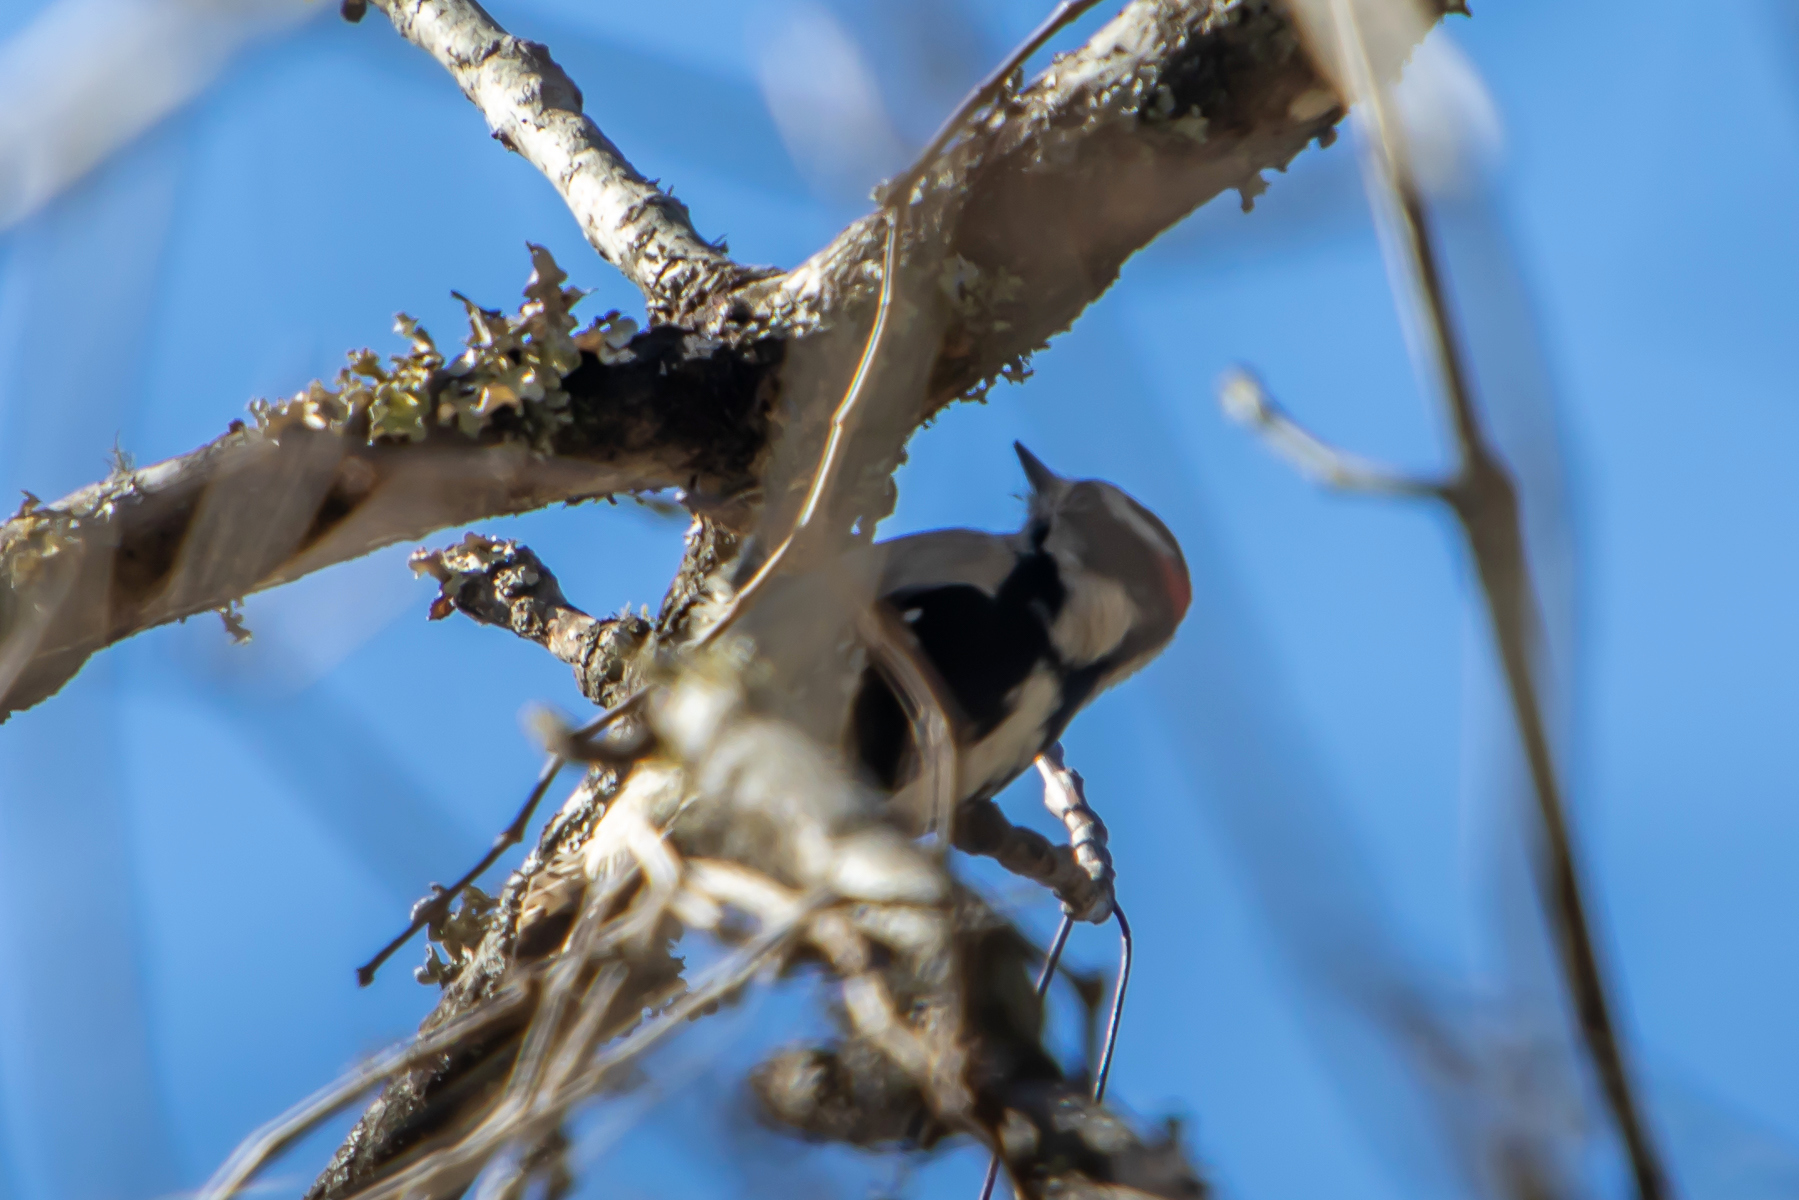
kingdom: Animalia
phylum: Chordata
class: Aves
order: Piciformes
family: Picidae
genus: Dryobates
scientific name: Dryobates pubescens
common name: Downy woodpecker
